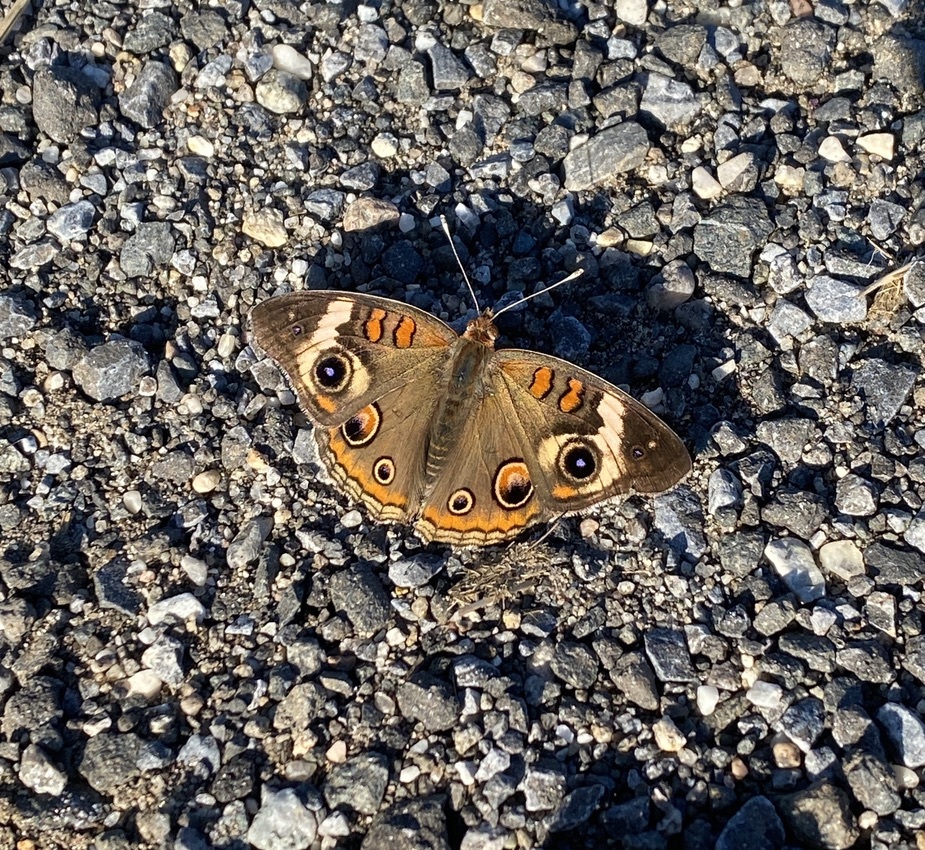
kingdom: Animalia
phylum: Arthropoda
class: Insecta
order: Lepidoptera
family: Nymphalidae
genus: Junonia
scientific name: Junonia coenia
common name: Common buckeye
